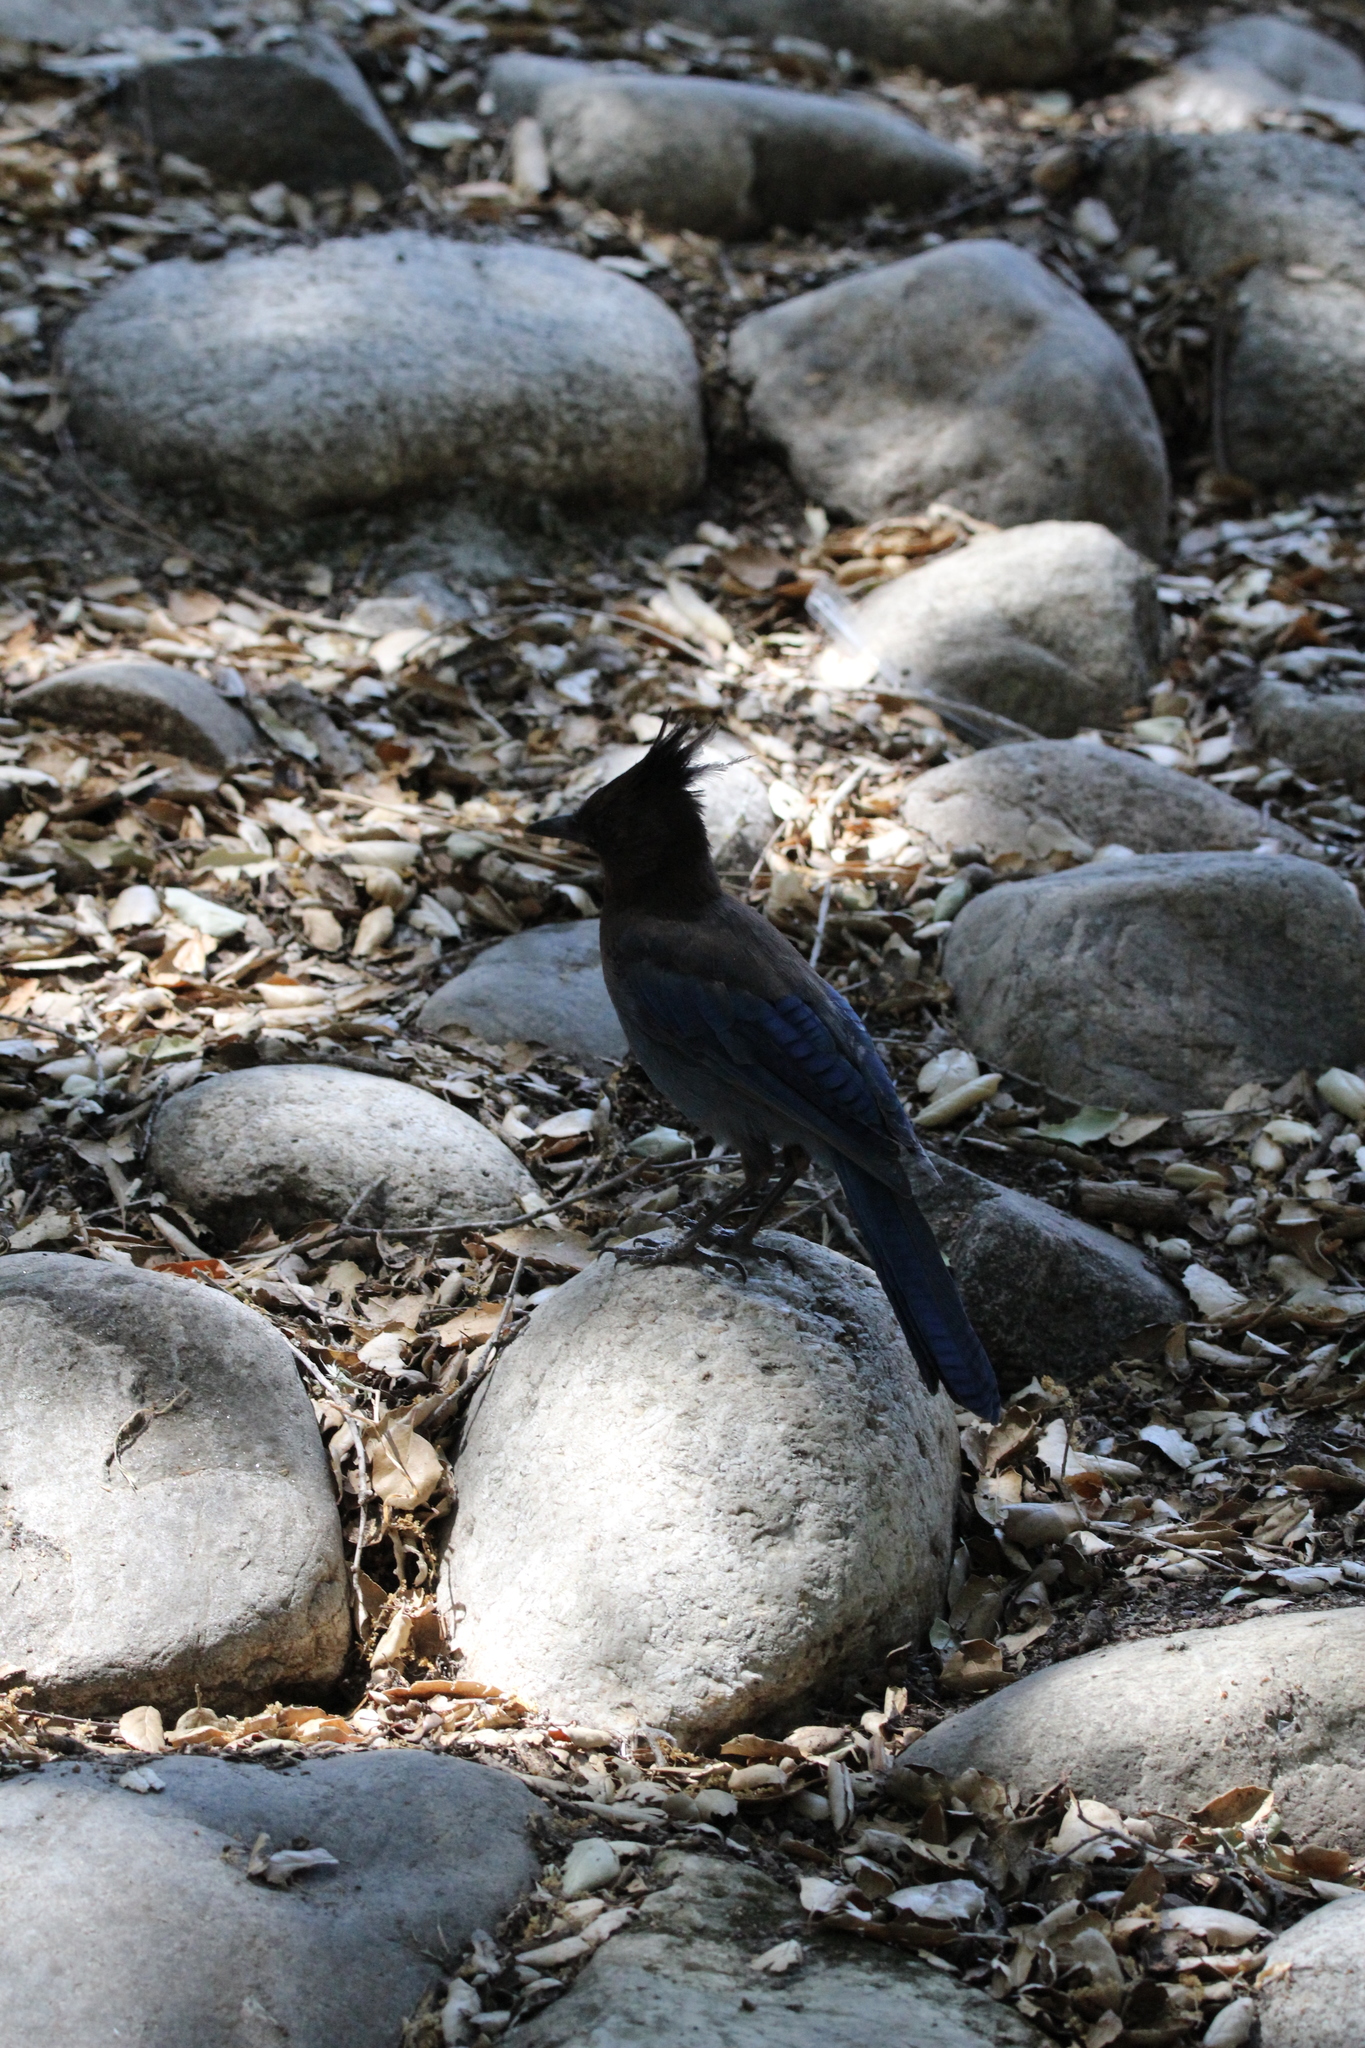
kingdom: Animalia
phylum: Chordata
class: Aves
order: Passeriformes
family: Corvidae
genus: Cyanocitta
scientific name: Cyanocitta stelleri
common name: Steller's jay
